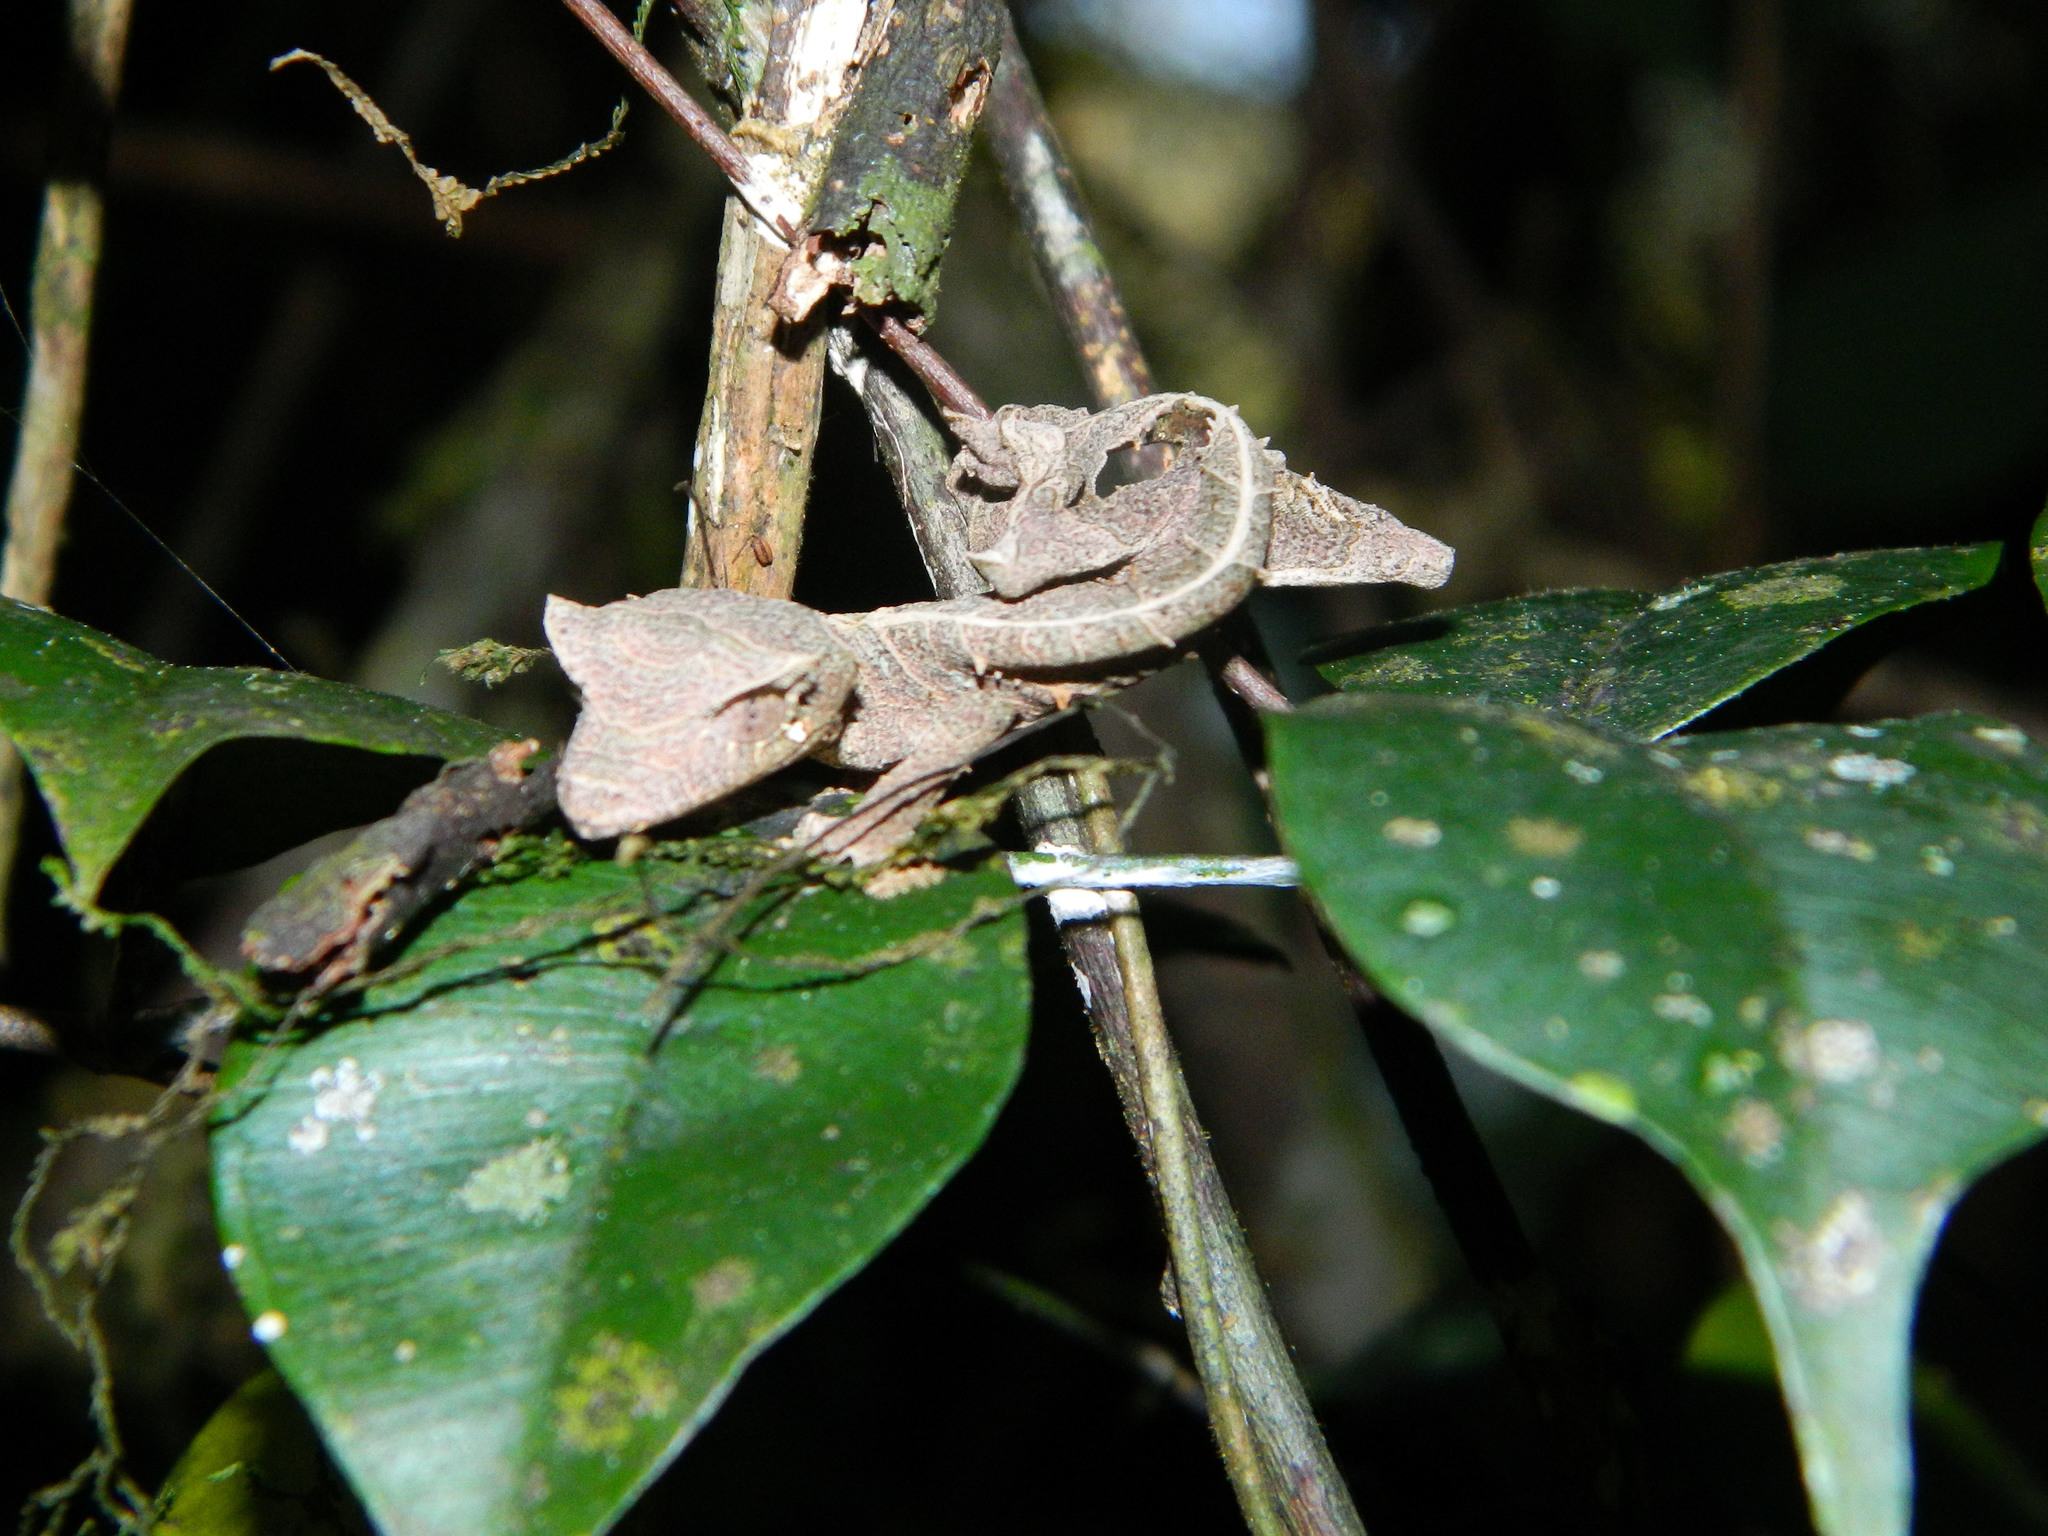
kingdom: Animalia
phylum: Chordata
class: Squamata
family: Gekkonidae
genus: Uroplatus
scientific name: Uroplatus phantasticus
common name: Phantastic leaf-tailed gecko
